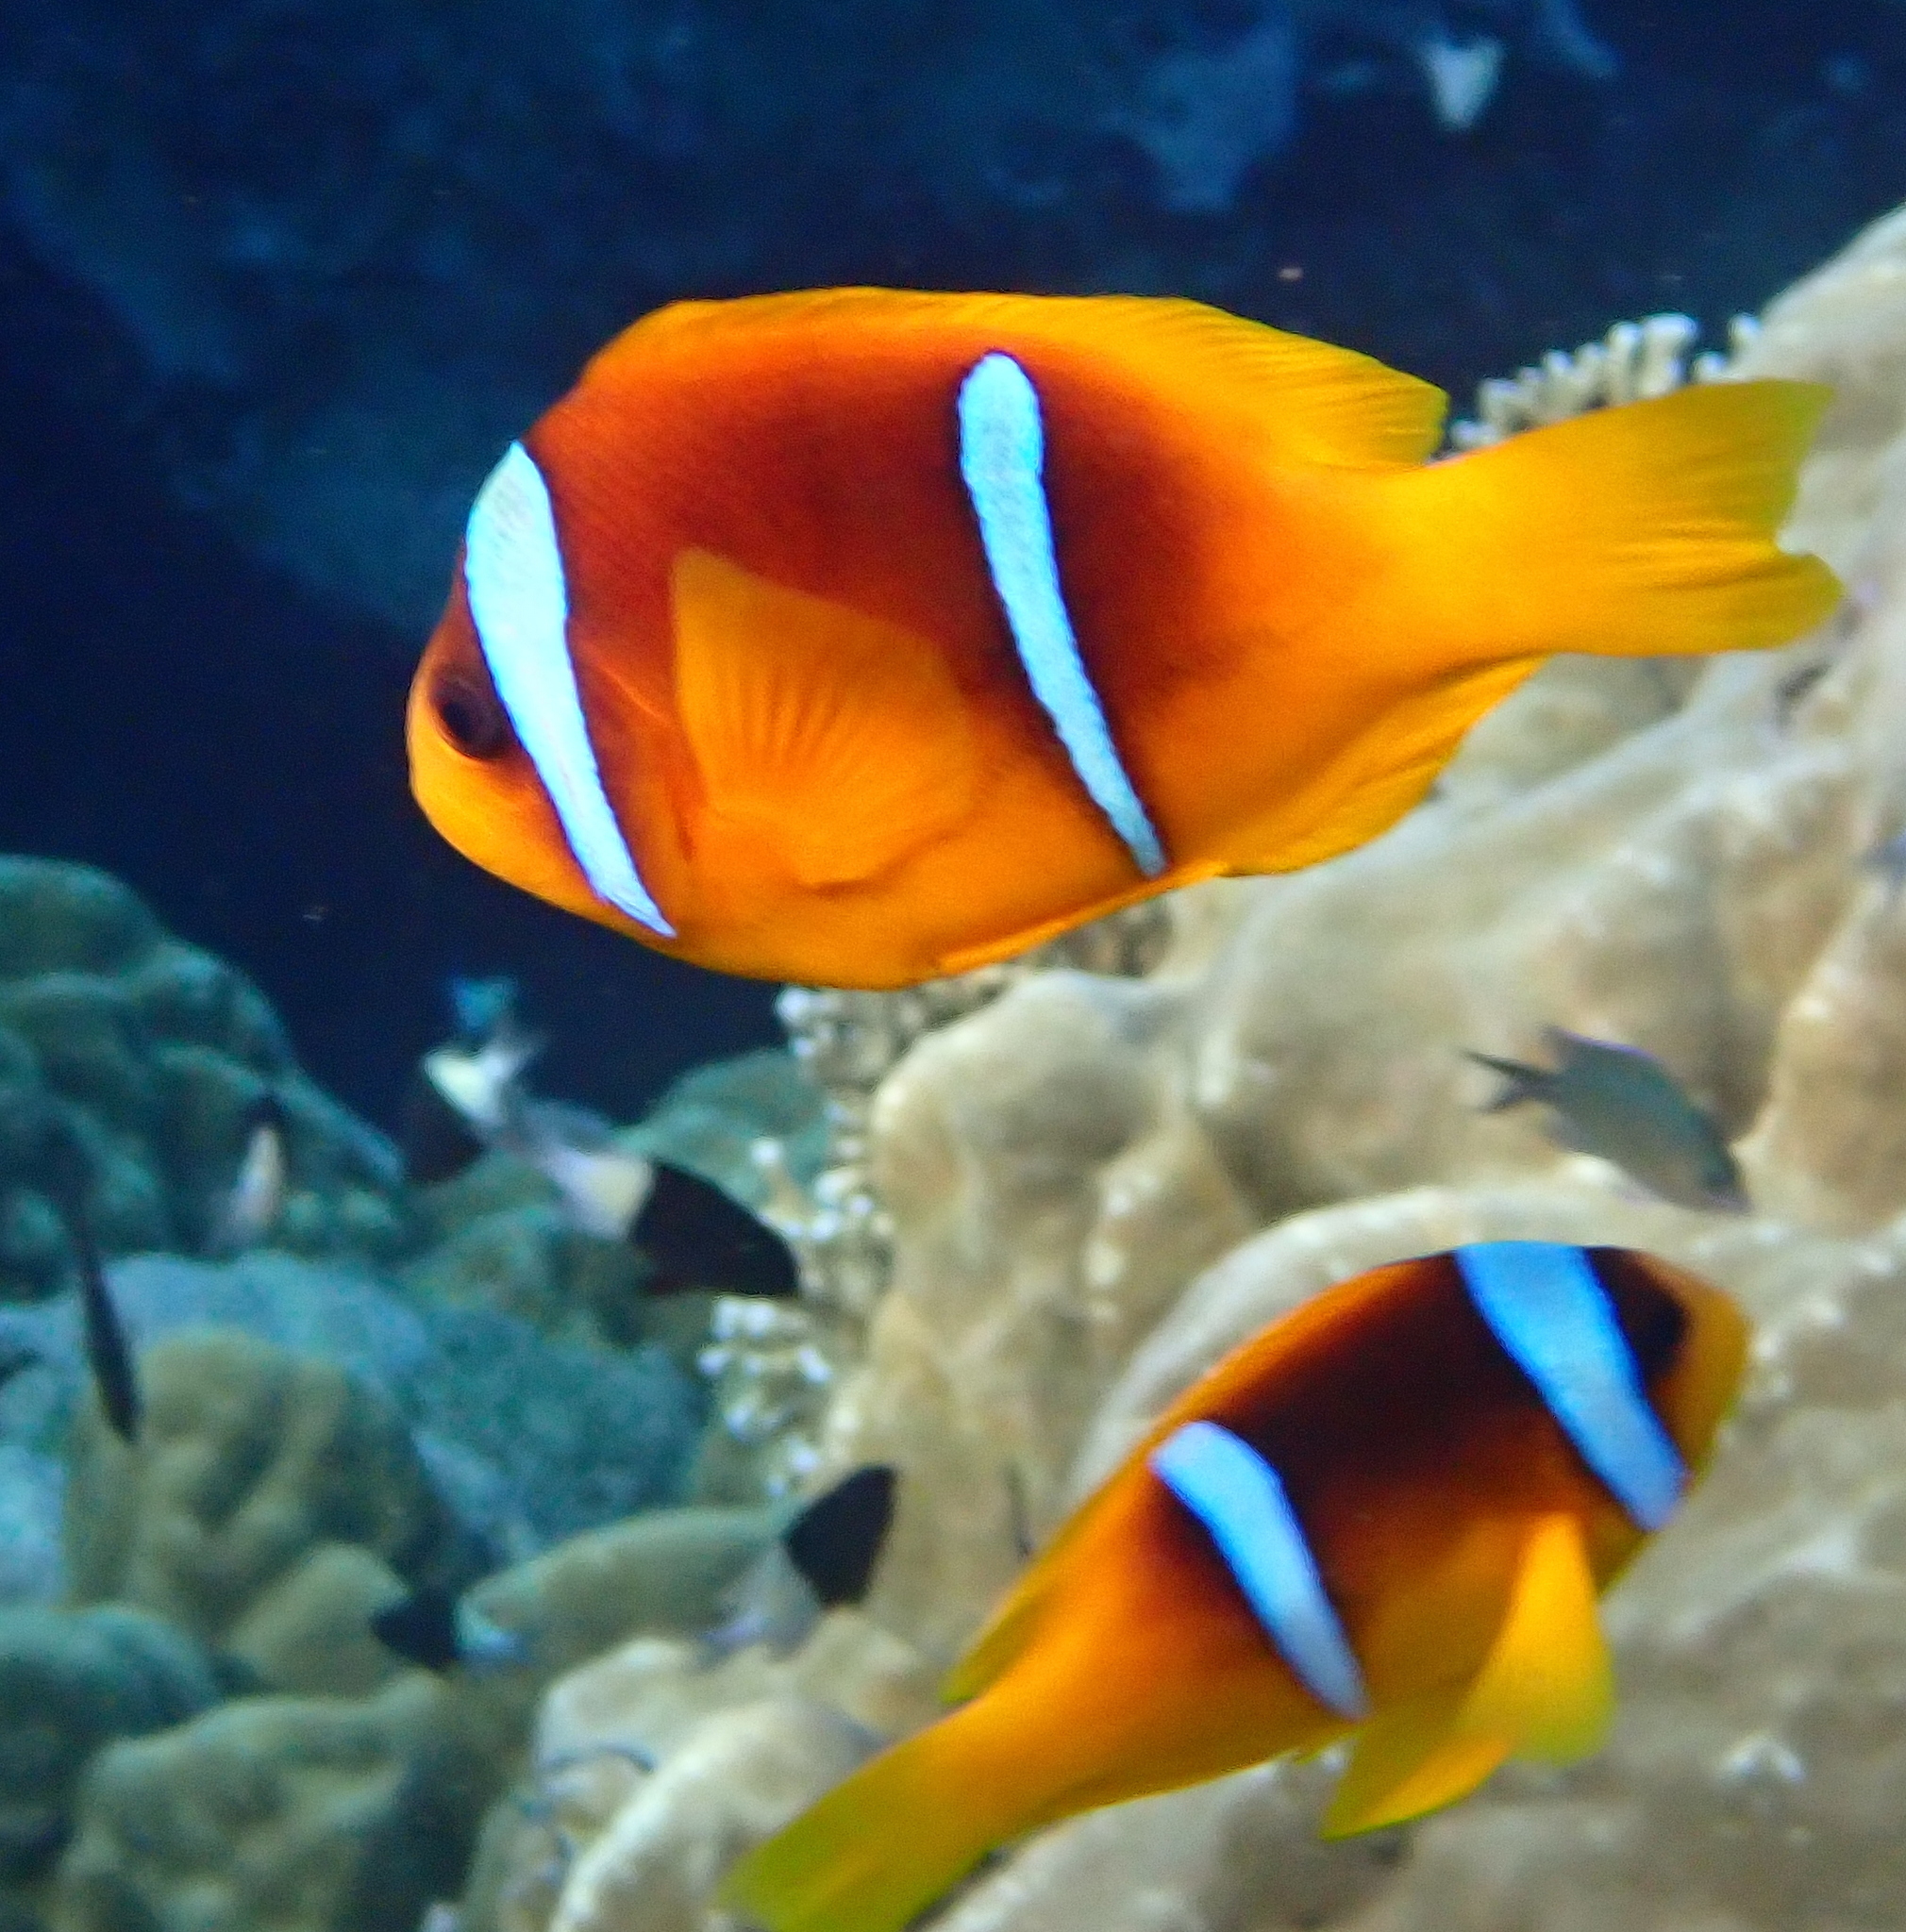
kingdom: Animalia
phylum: Chordata
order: Perciformes
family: Pomacentridae
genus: Amphiprion
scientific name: Amphiprion bicinctus
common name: Two-banded anemonefish
